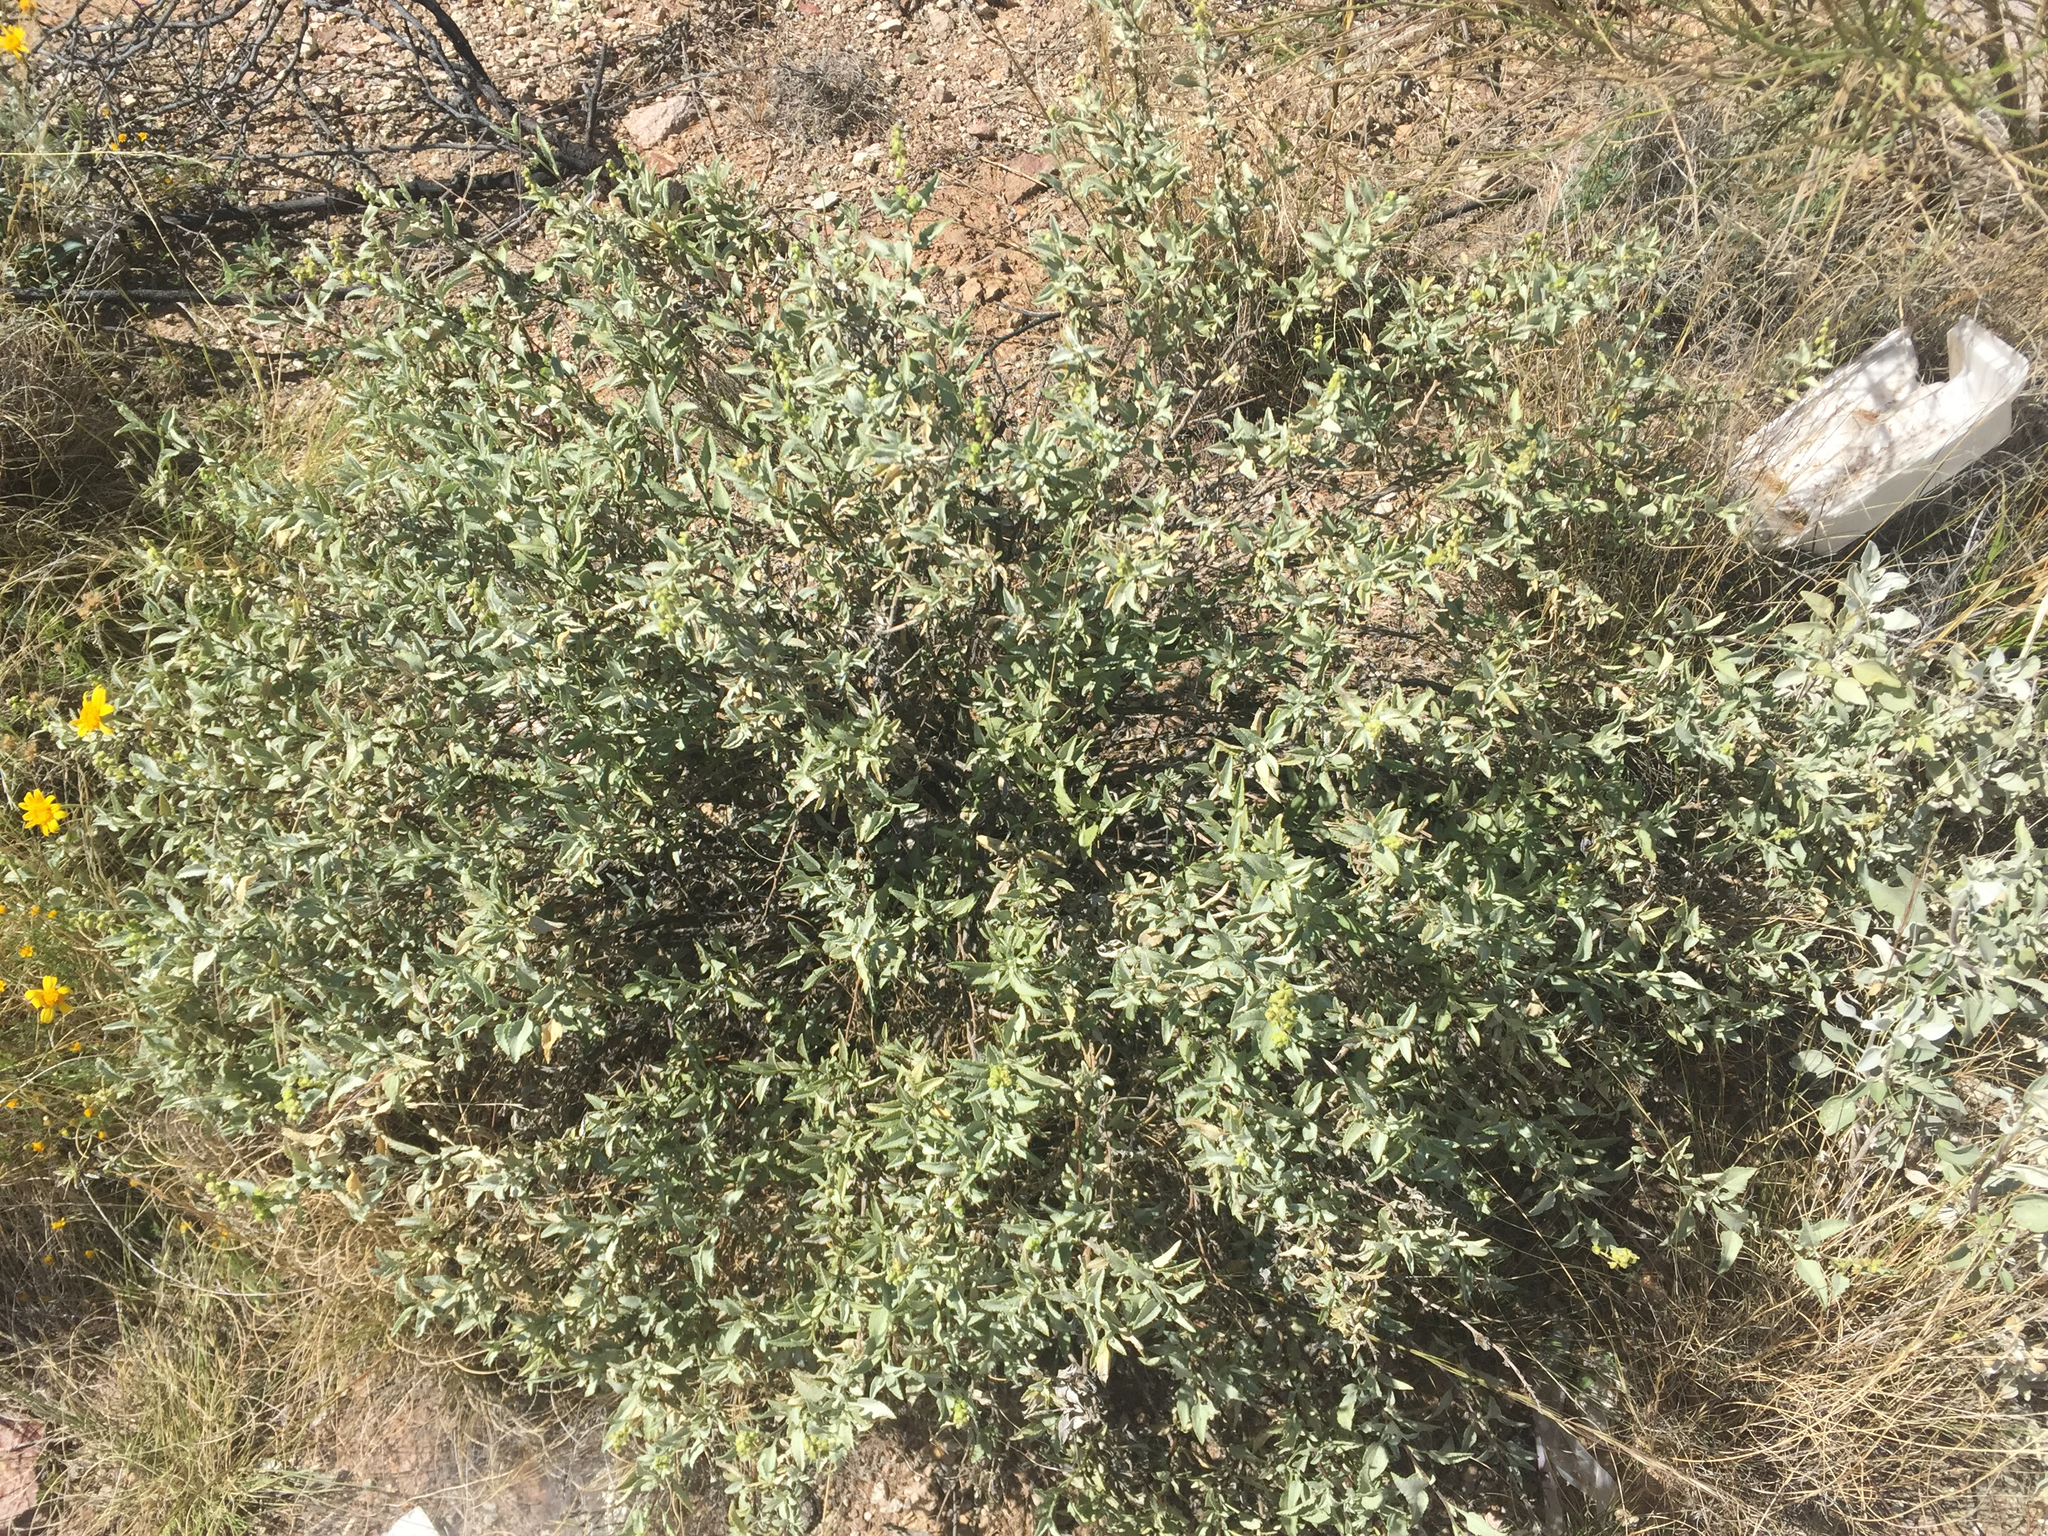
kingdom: Plantae
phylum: Tracheophyta
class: Magnoliopsida
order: Asterales
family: Asteraceae
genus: Ambrosia
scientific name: Ambrosia deltoidea
